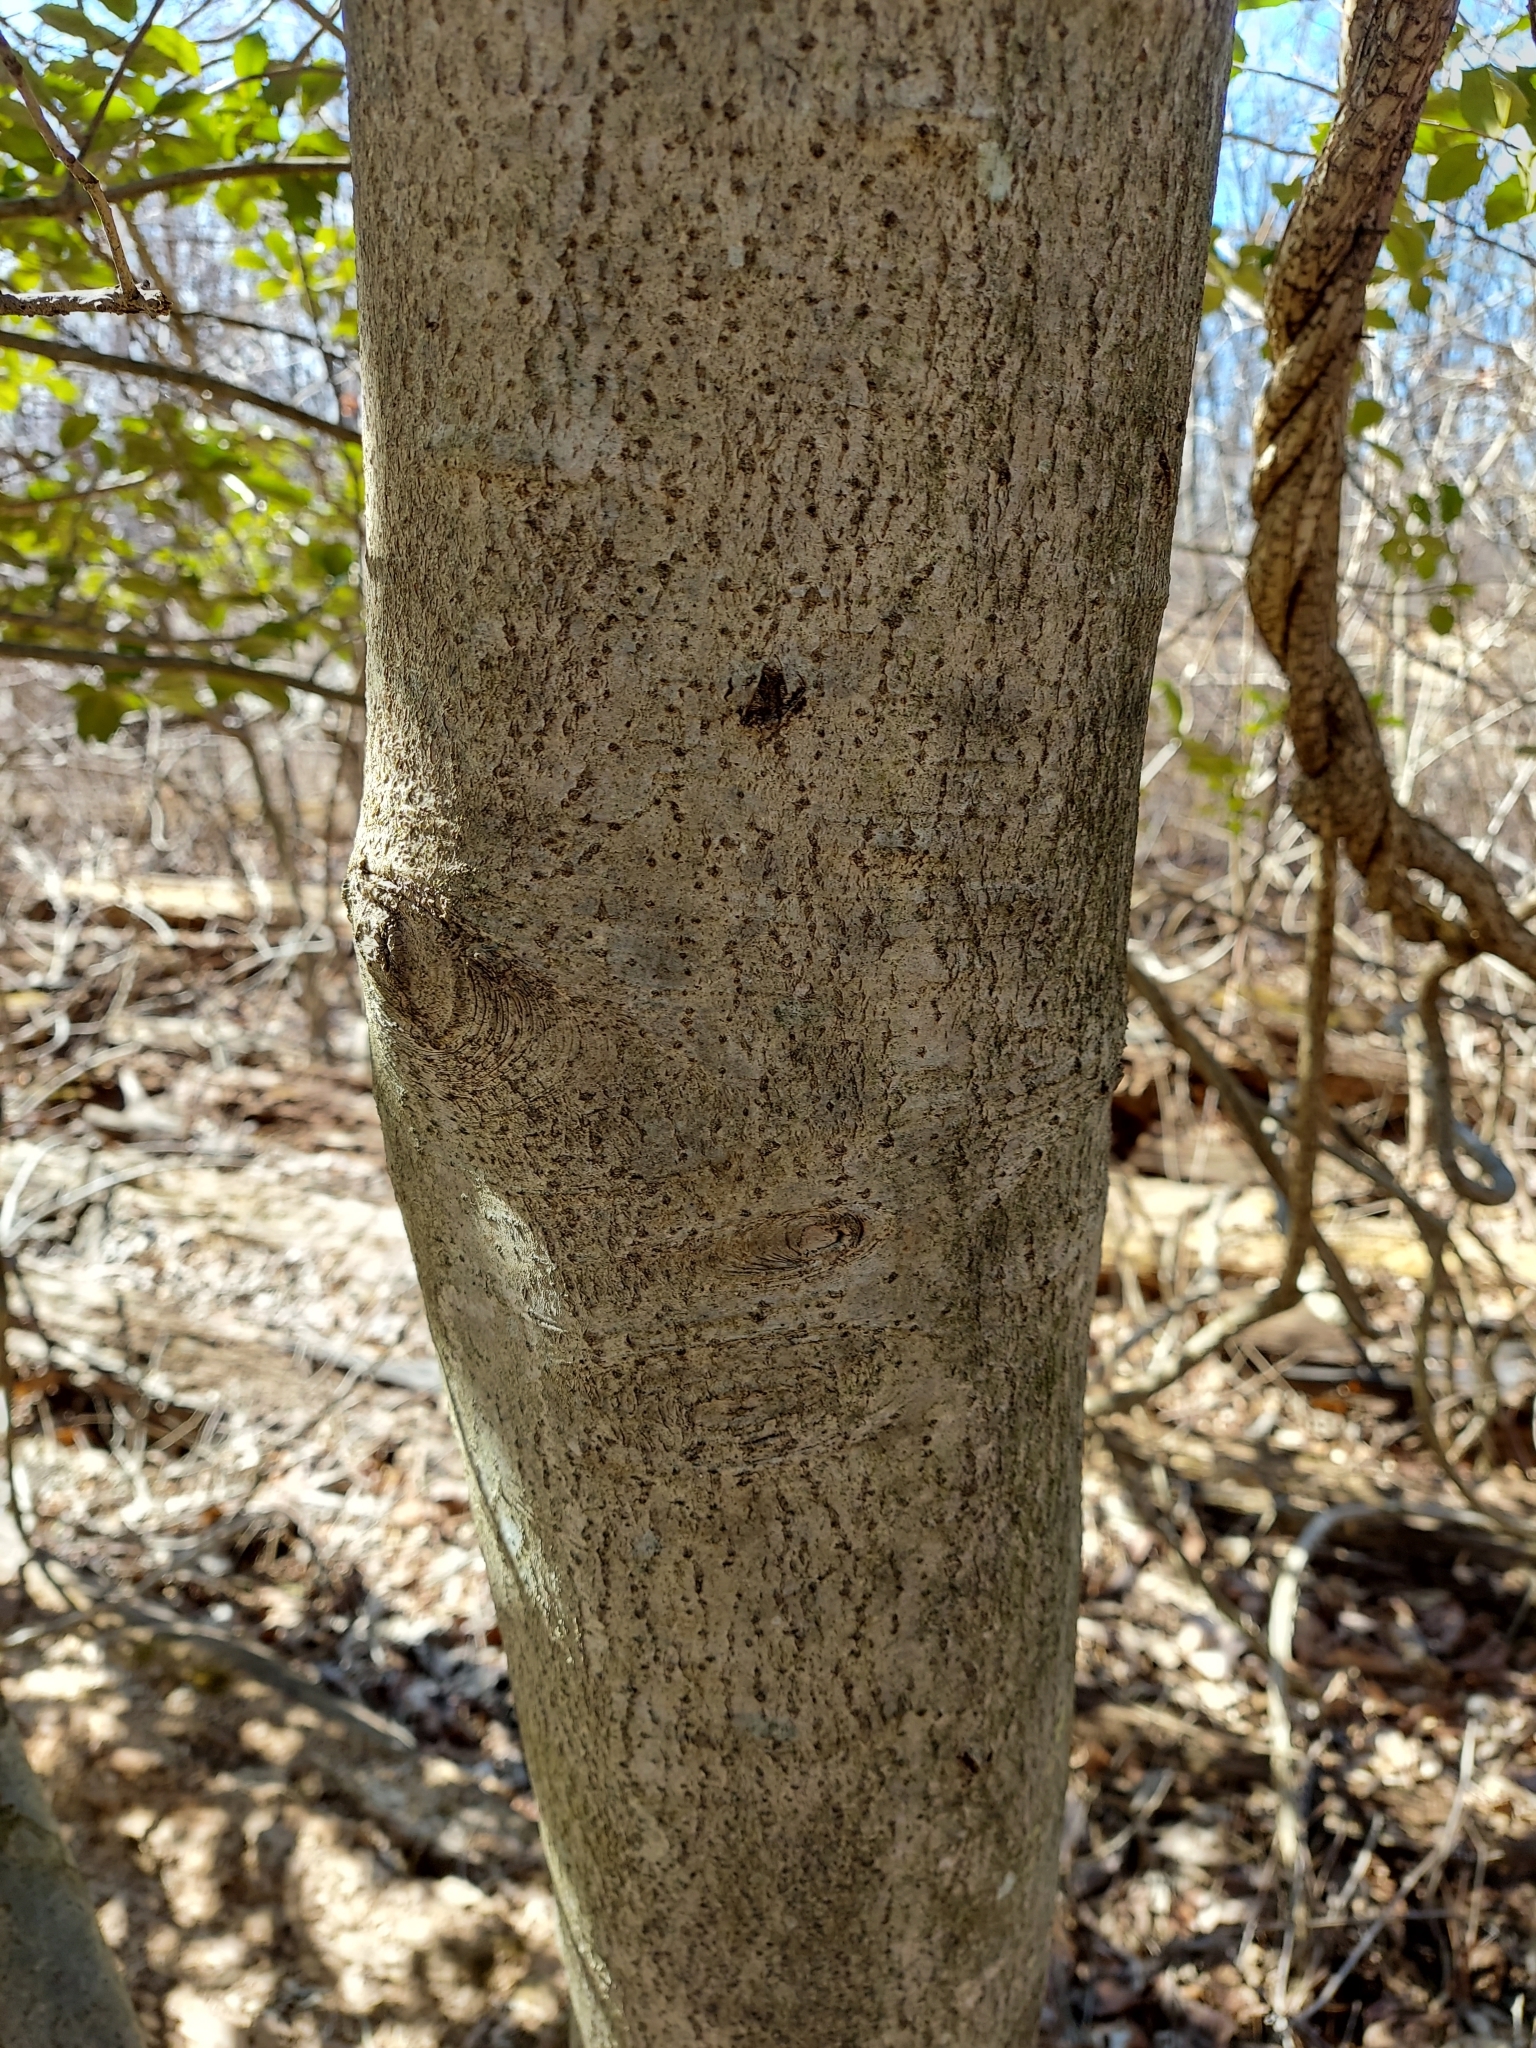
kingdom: Plantae
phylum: Tracheophyta
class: Magnoliopsida
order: Aquifoliales
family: Aquifoliaceae
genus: Ilex
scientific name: Ilex opaca
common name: American holly
